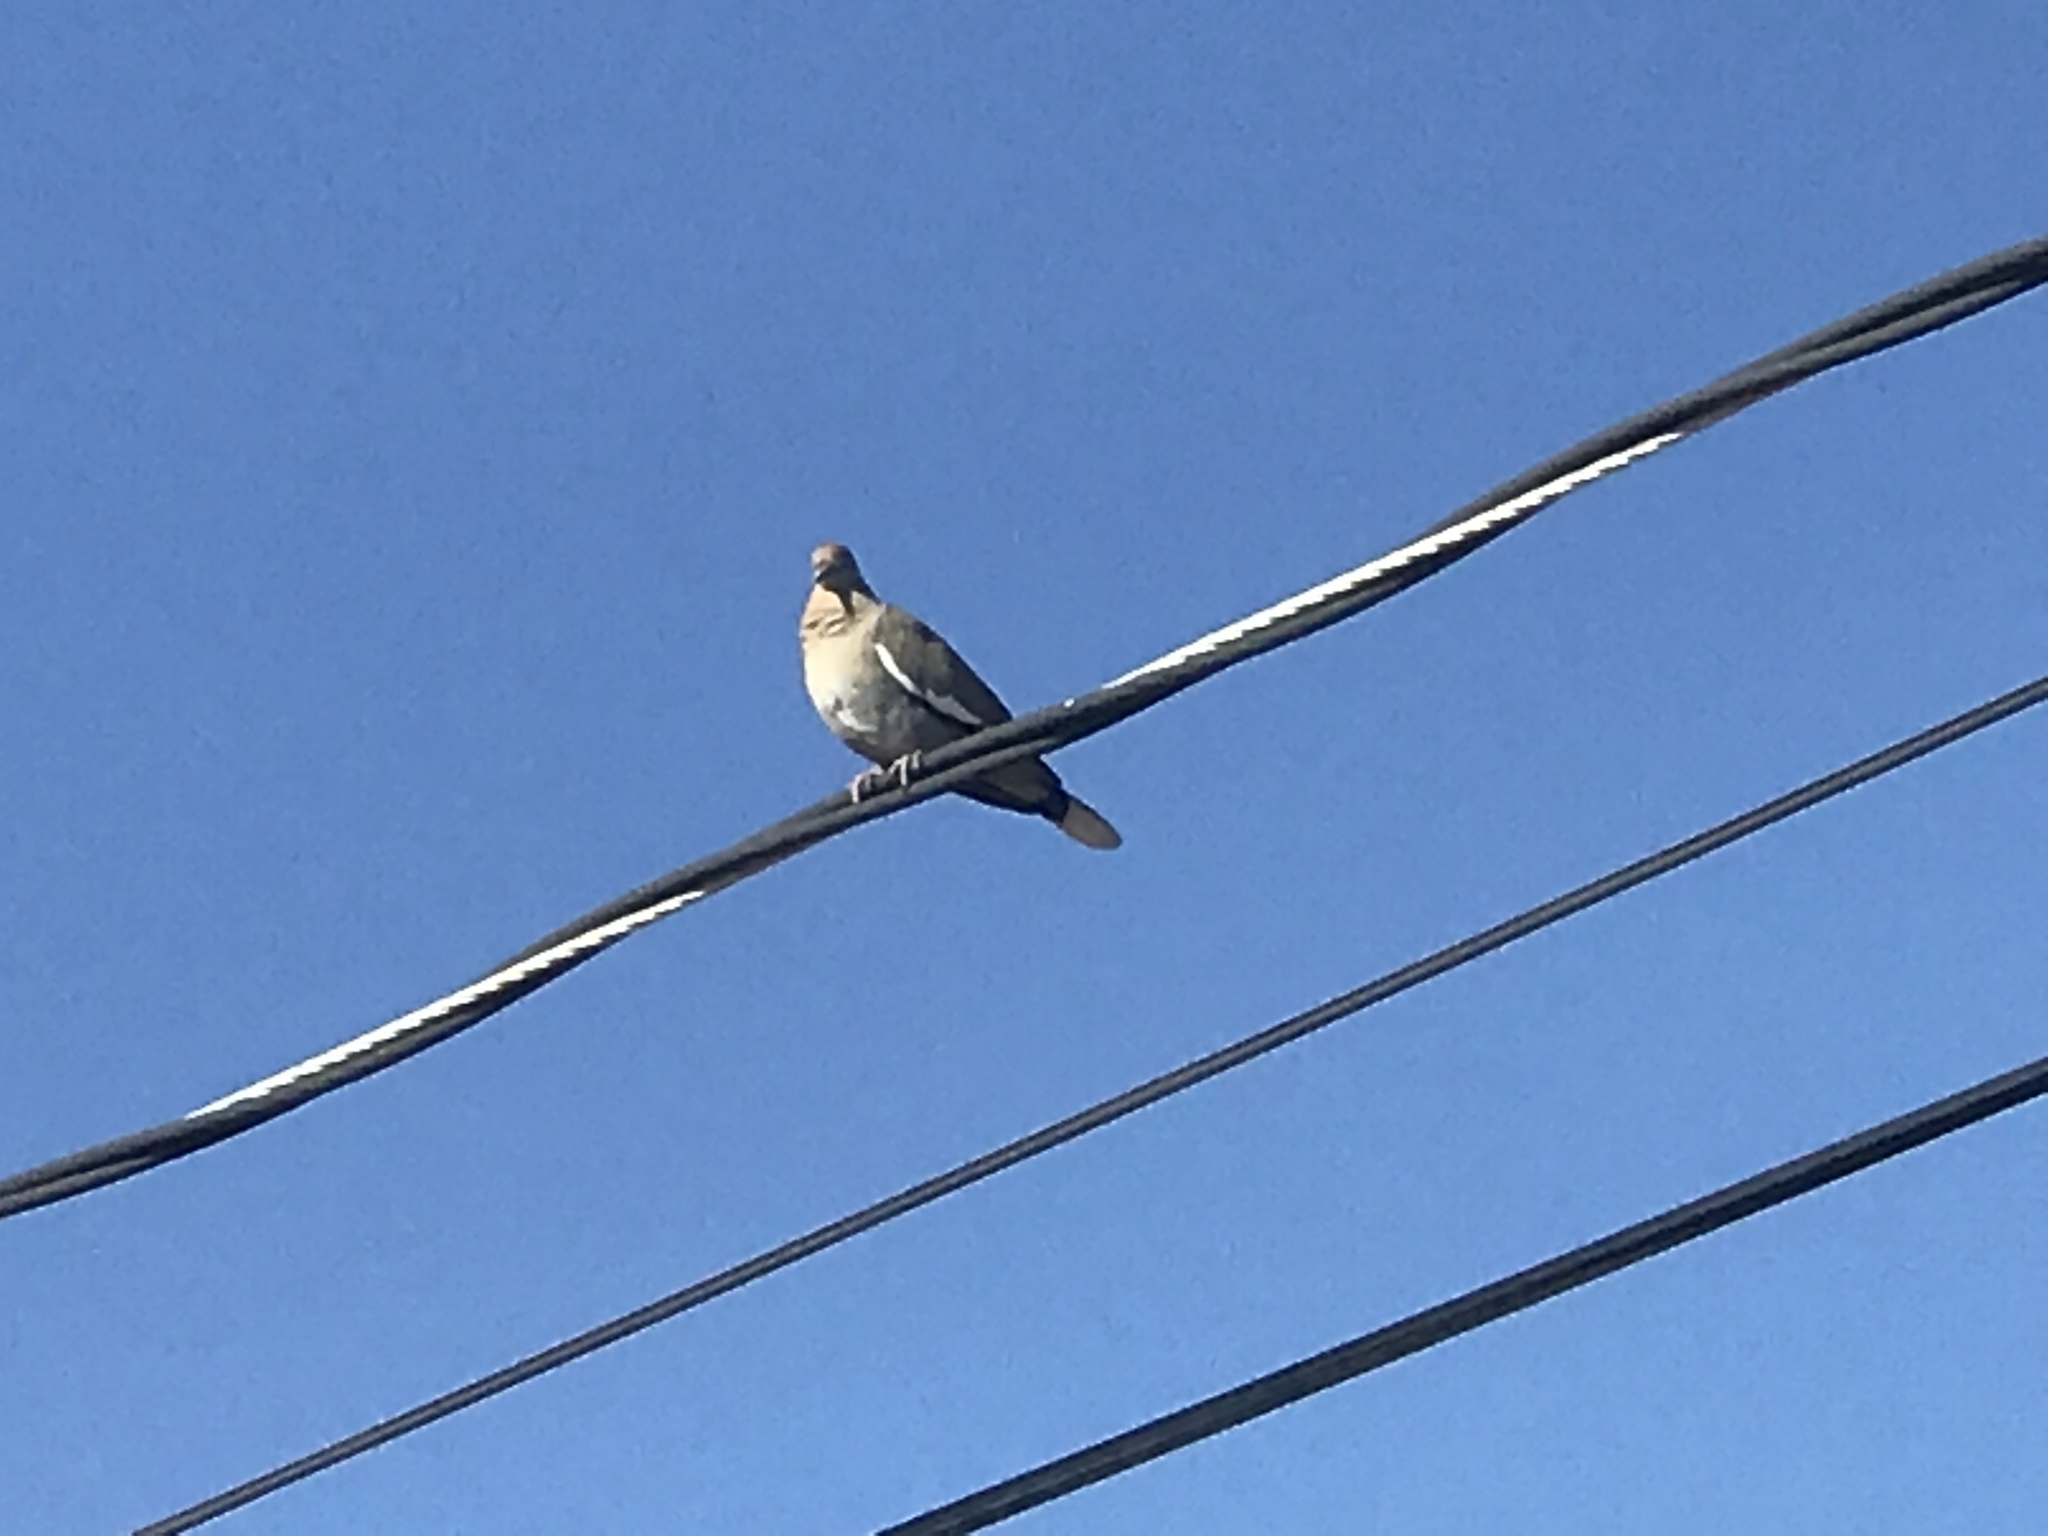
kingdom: Animalia
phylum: Chordata
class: Aves
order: Columbiformes
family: Columbidae
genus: Zenaida
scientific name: Zenaida asiatica
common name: White-winged dove
